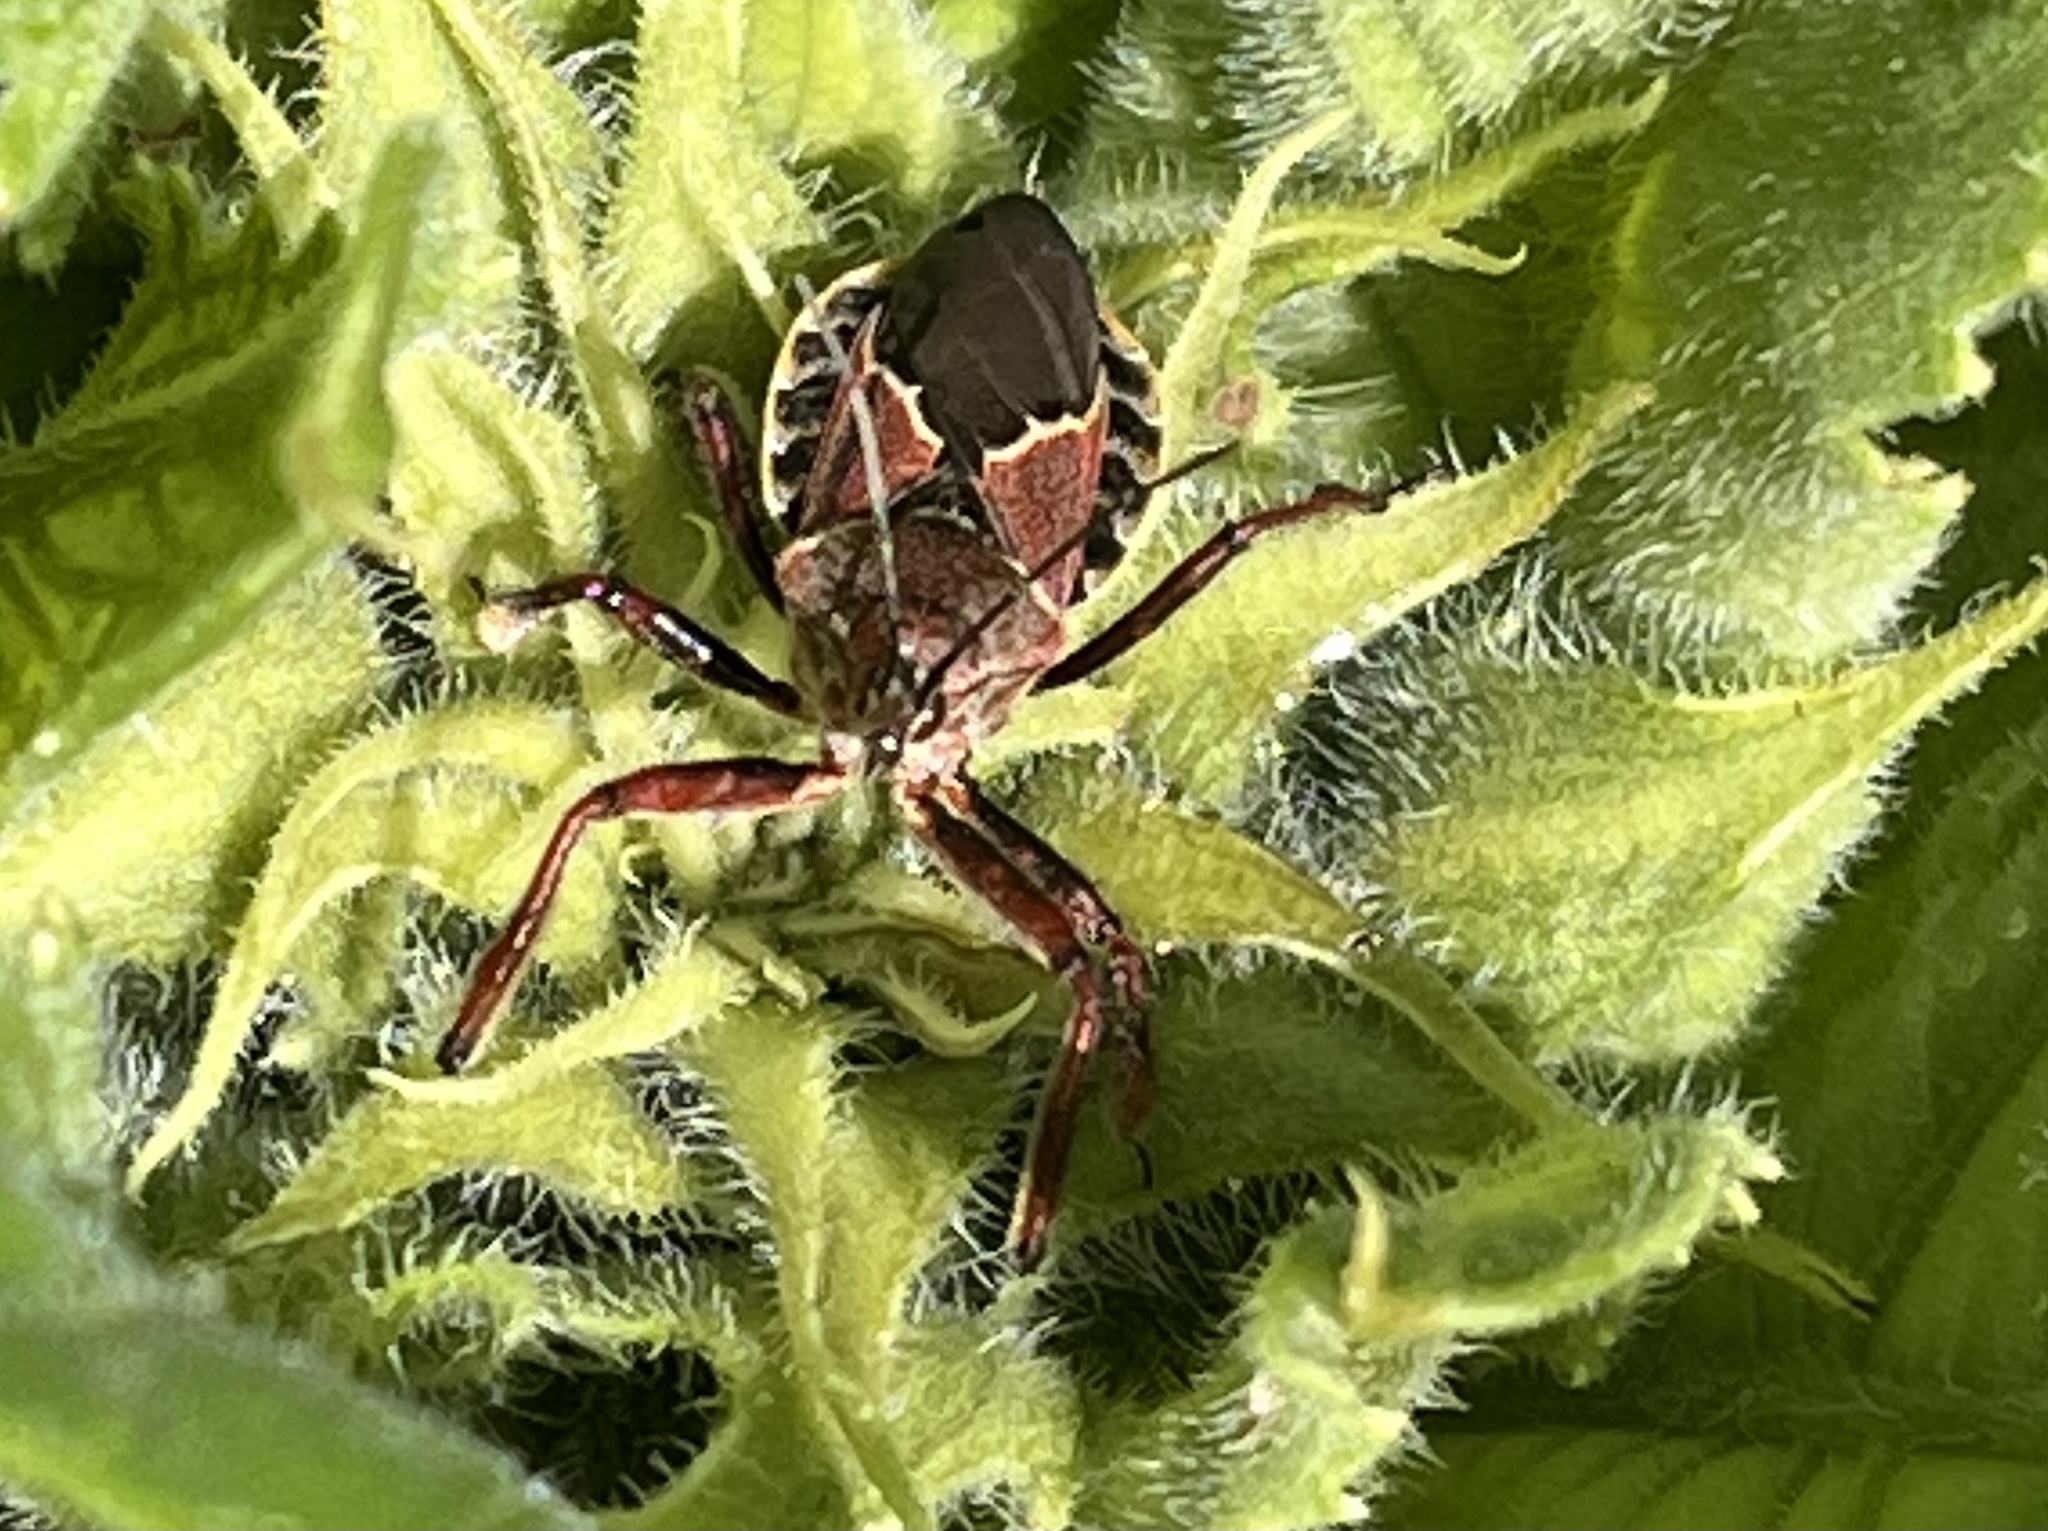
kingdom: Animalia
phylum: Arthropoda
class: Insecta
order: Hemiptera
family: Reduviidae
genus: Apiomerus
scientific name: Apiomerus spissipes
